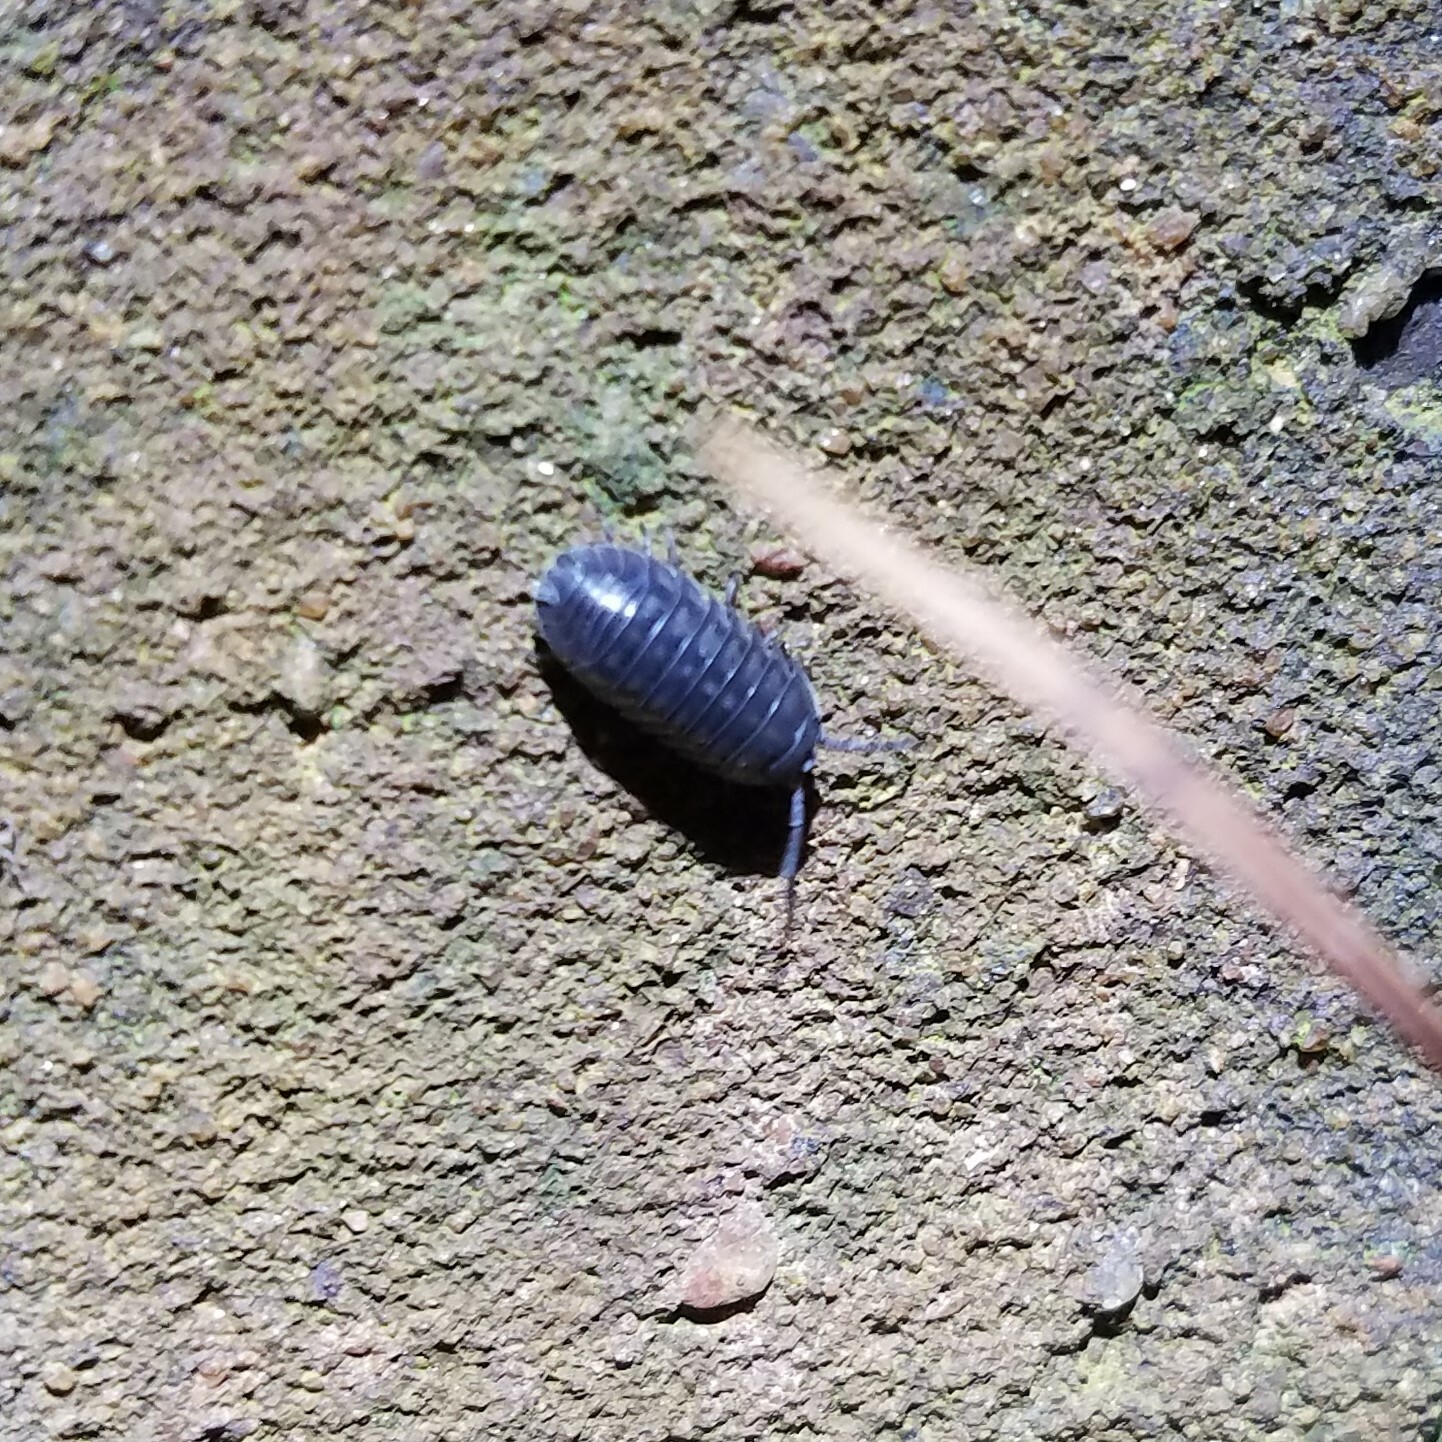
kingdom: Animalia
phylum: Arthropoda
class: Malacostraca
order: Isopoda
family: Armadillidiidae
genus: Armadillidium
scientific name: Armadillidium nasatum
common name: Isopod
